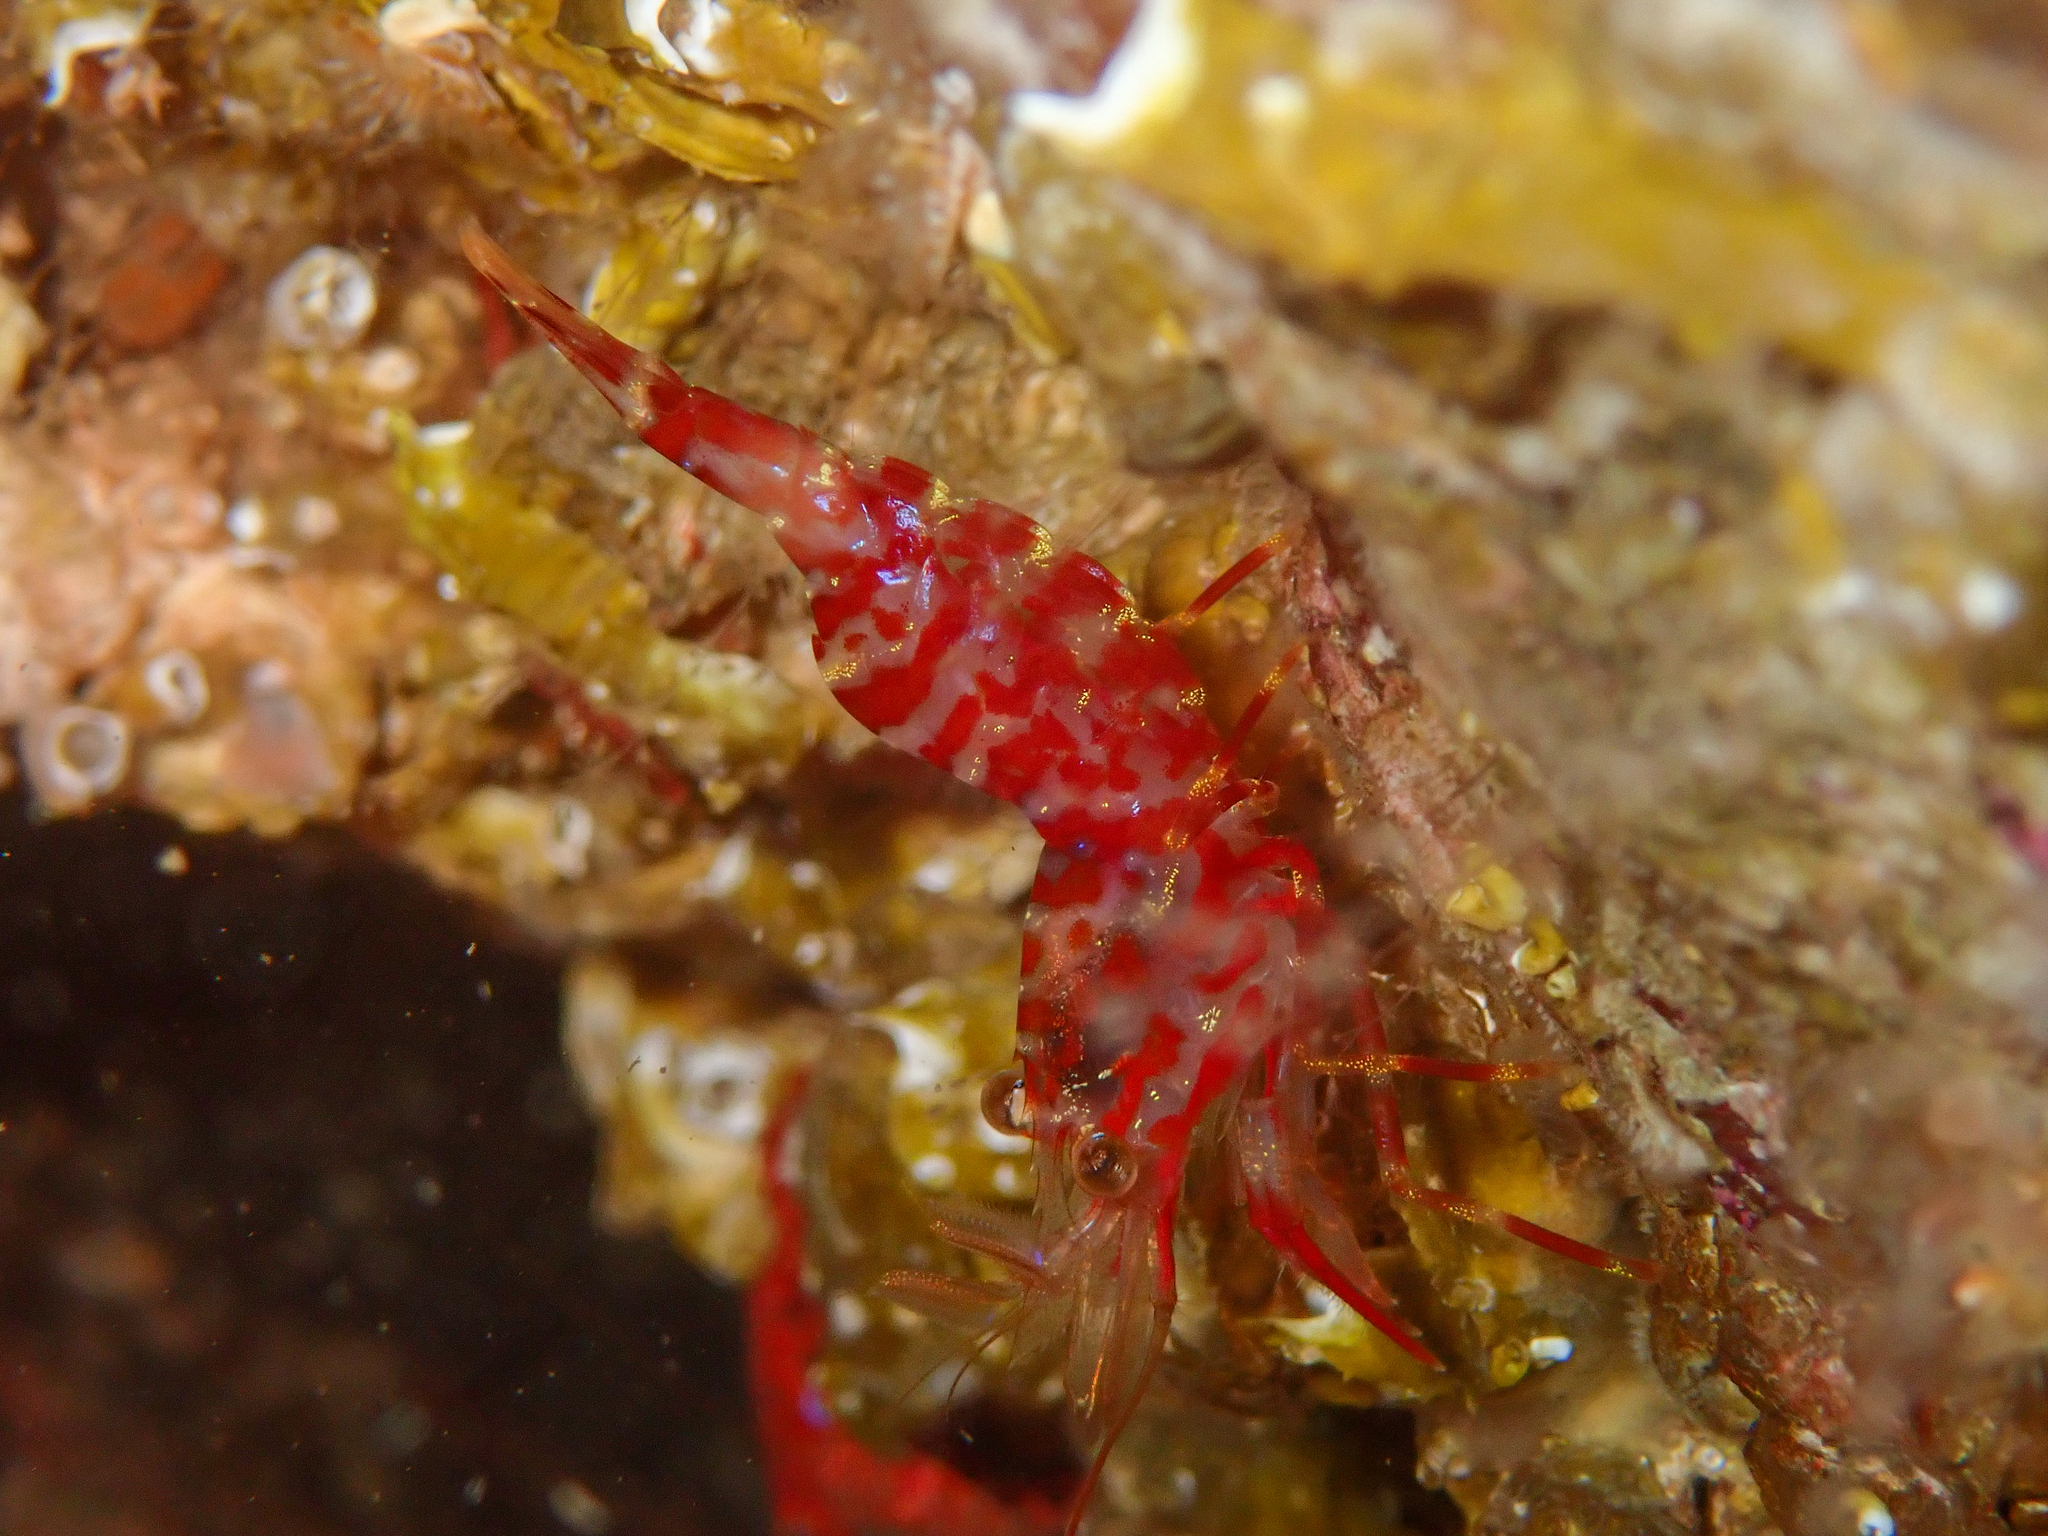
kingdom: Animalia
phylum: Arthropoda
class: Malacostraca
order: Decapoda
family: Thoridae
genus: Lebbeus
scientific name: Lebbeus polaris
